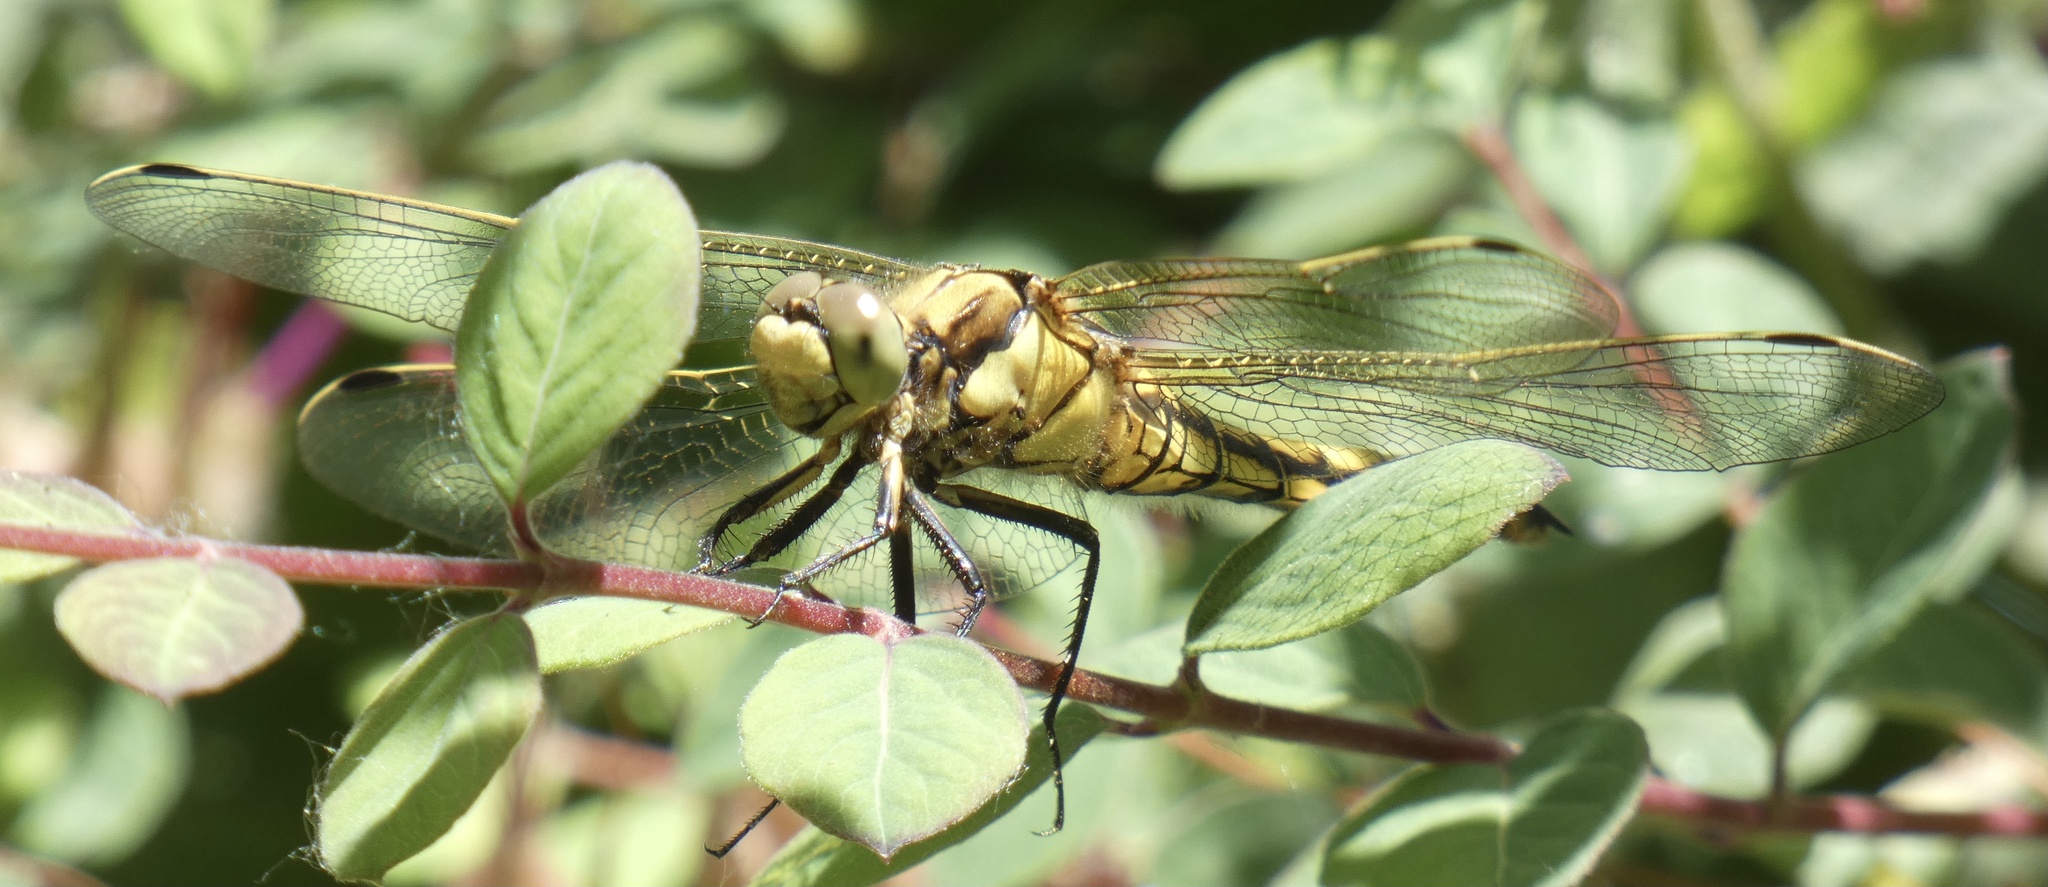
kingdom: Animalia
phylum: Arthropoda
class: Insecta
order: Odonata
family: Libellulidae
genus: Orthetrum
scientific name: Orthetrum cancellatum
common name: Black-tailed skimmer
